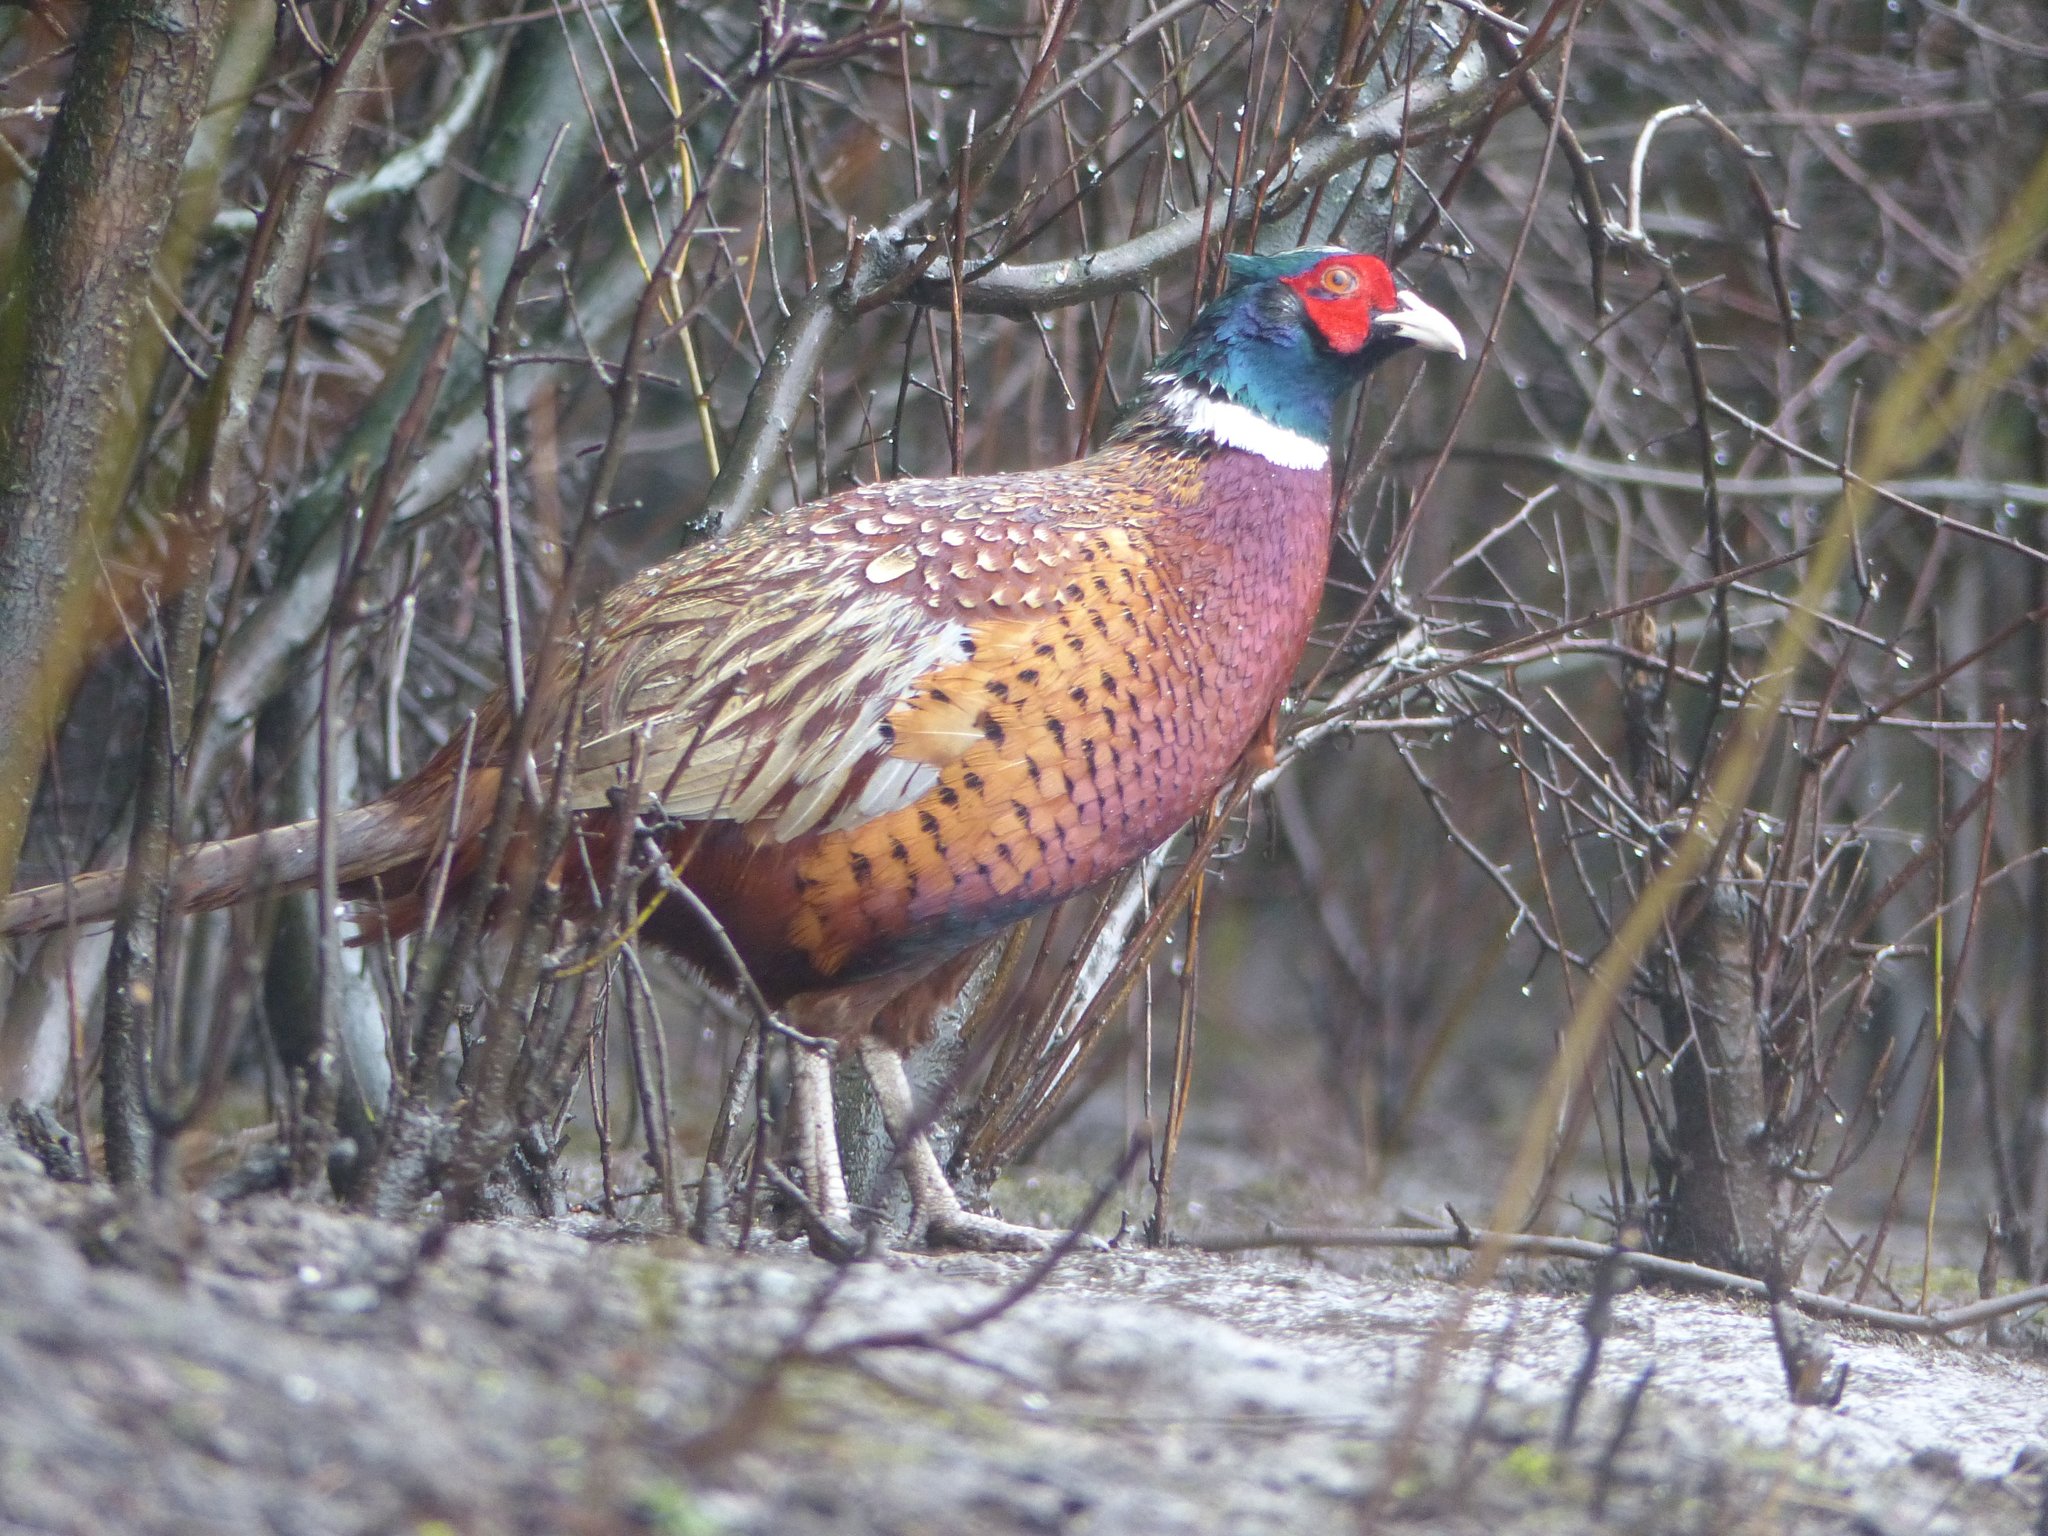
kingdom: Animalia
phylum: Chordata
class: Aves
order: Galliformes
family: Phasianidae
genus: Phasianus
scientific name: Phasianus colchicus
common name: Common pheasant
